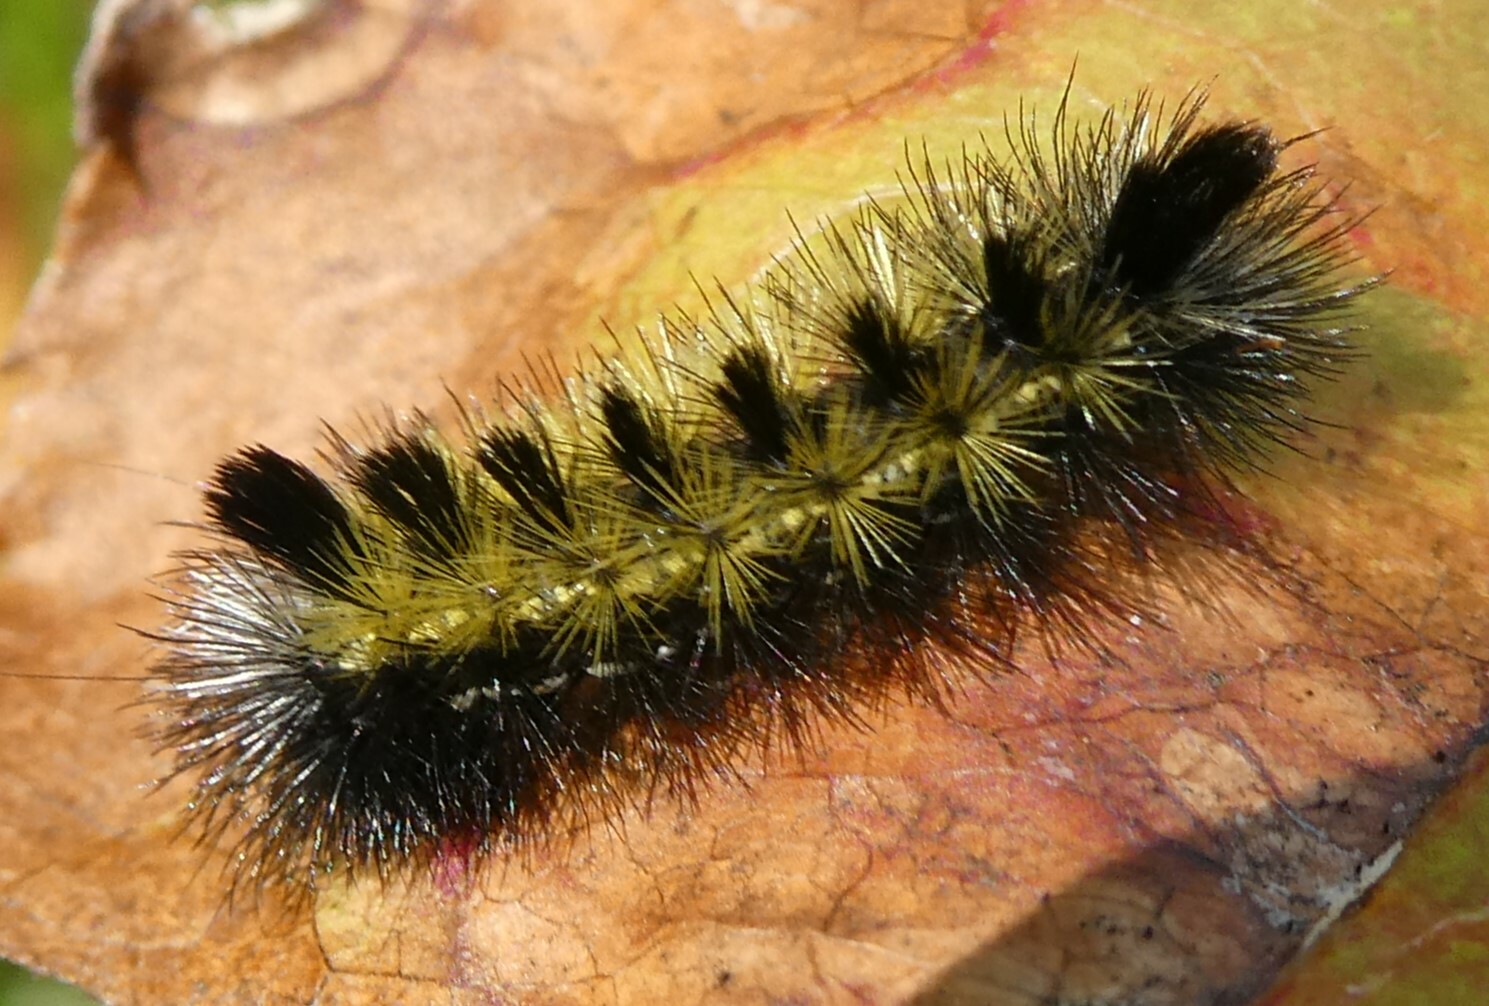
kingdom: Animalia
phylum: Arthropoda
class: Insecta
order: Lepidoptera
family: Erebidae
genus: Ctenucha
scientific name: Ctenucha virginica
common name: Virginia ctenucha moth
